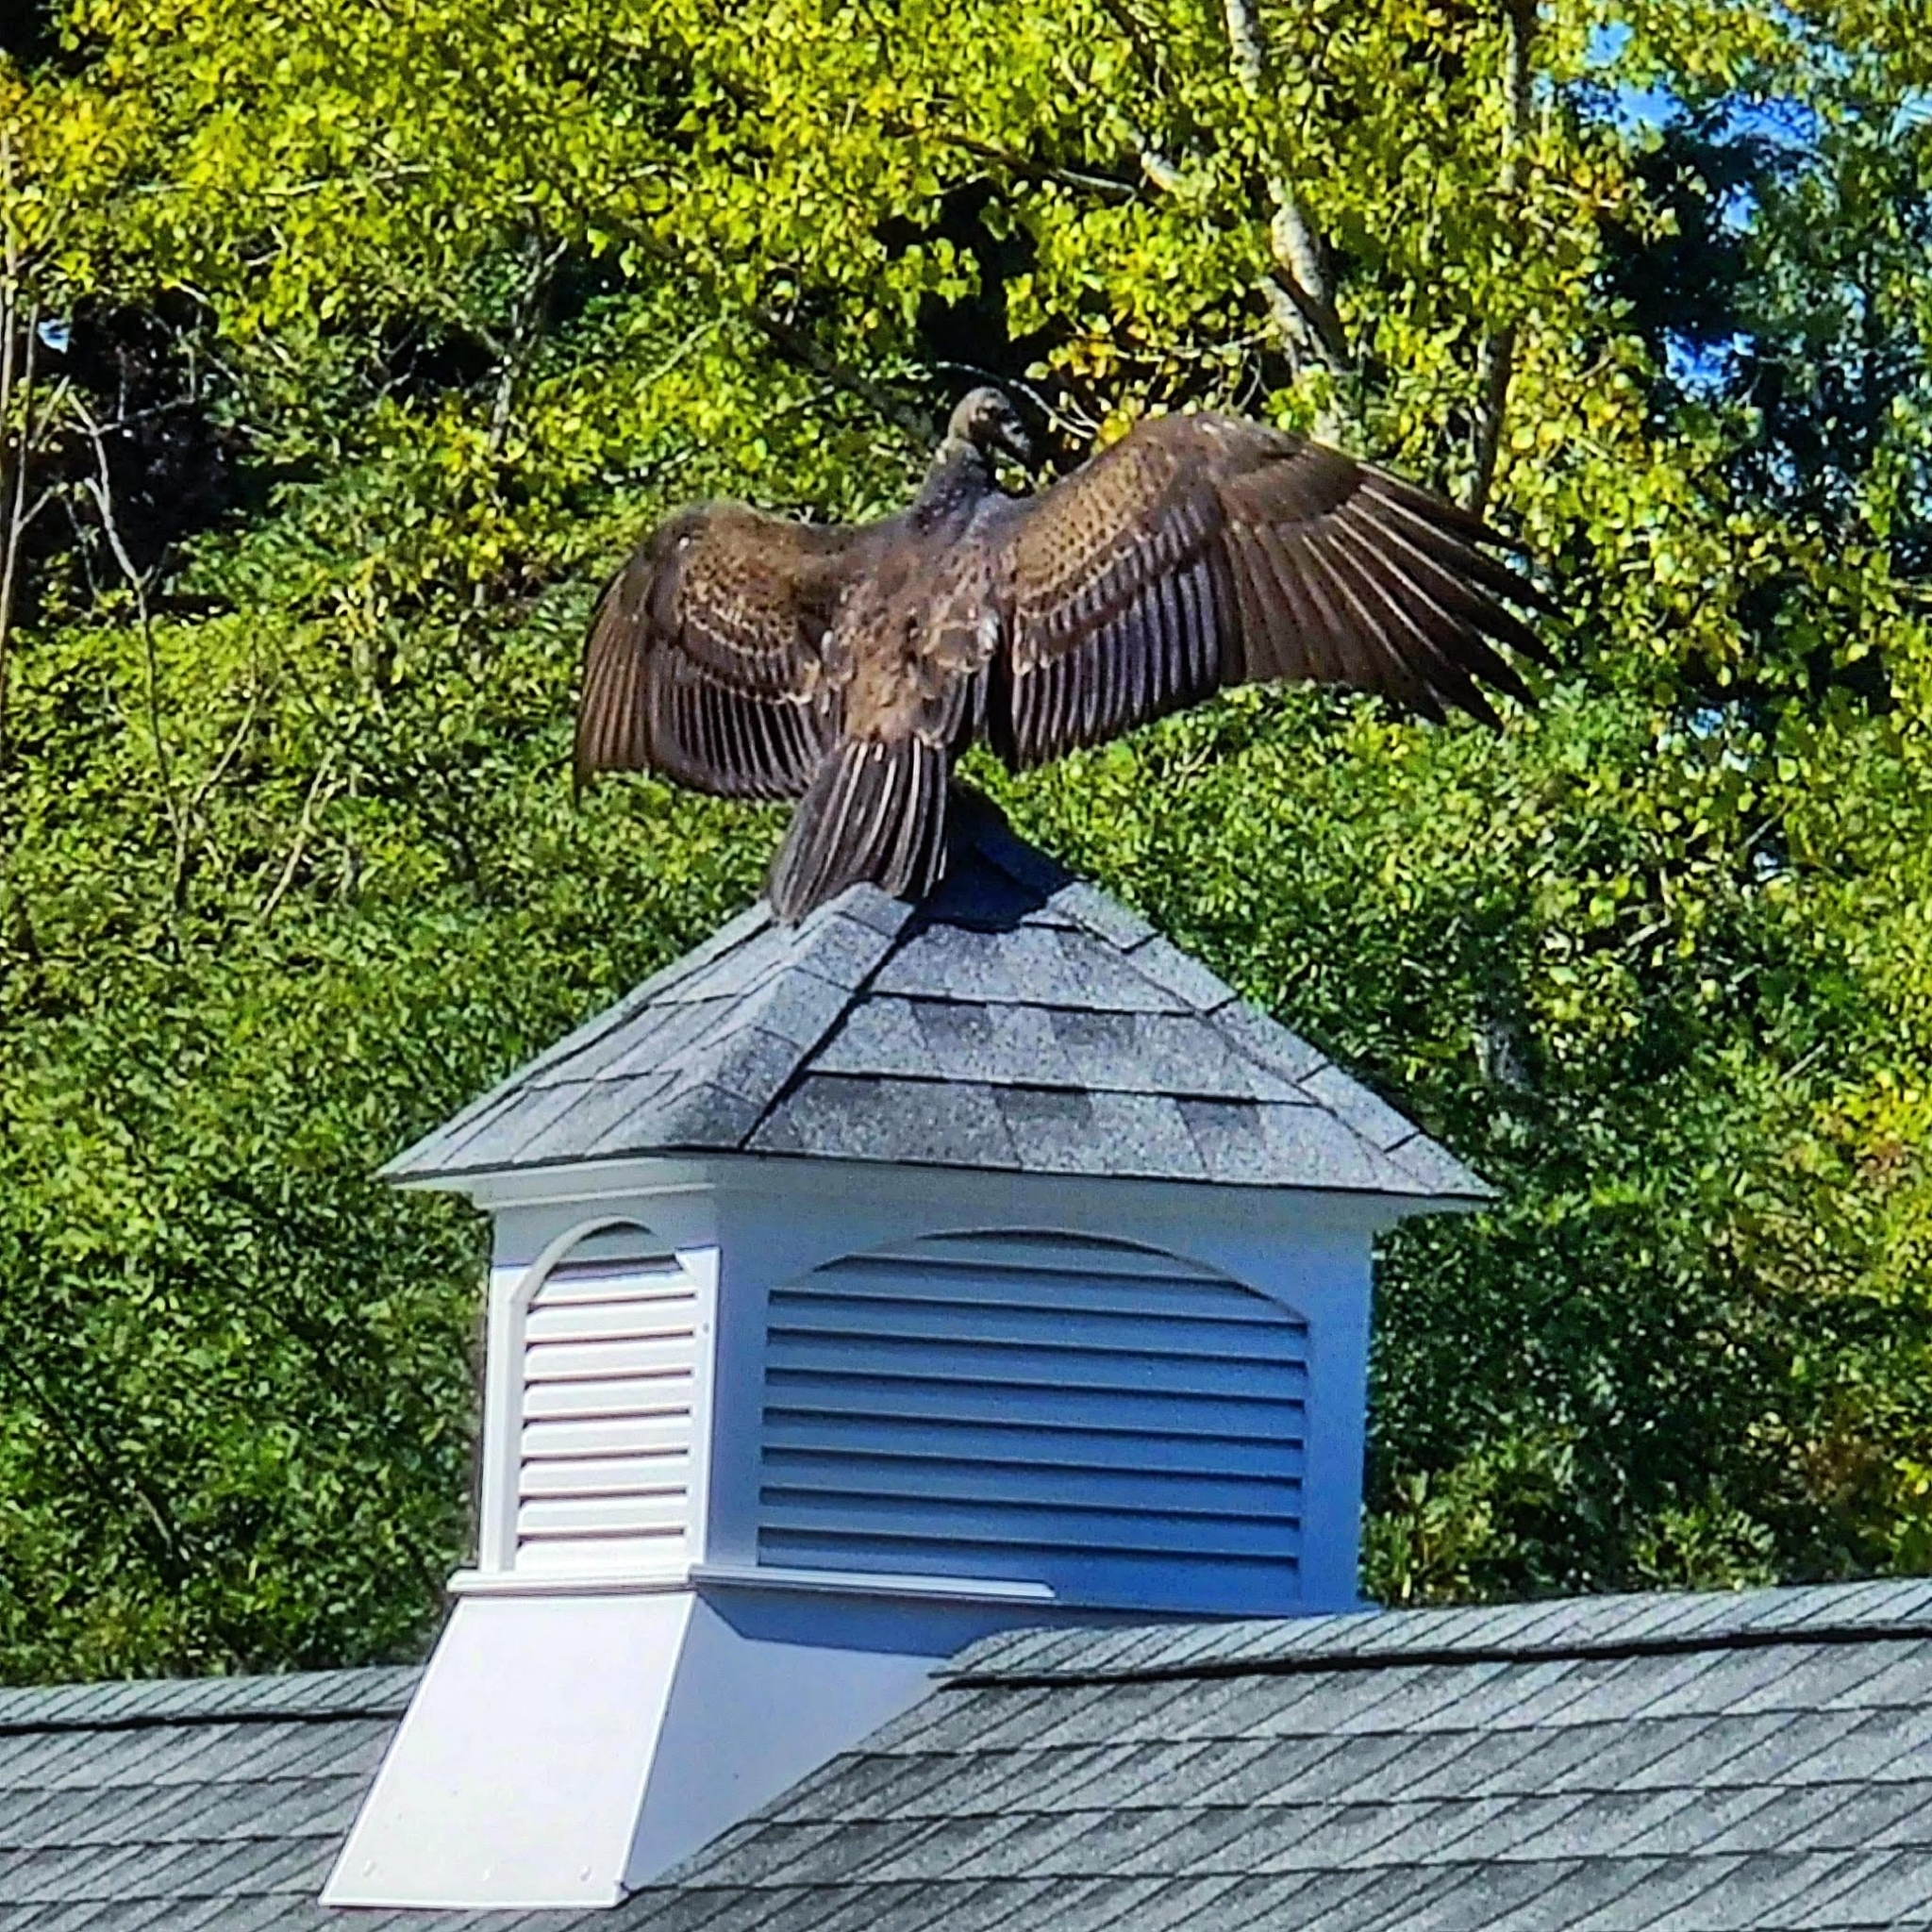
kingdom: Animalia
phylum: Chordata
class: Aves
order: Accipitriformes
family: Cathartidae
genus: Cathartes
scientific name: Cathartes aura
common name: Turkey vulture
